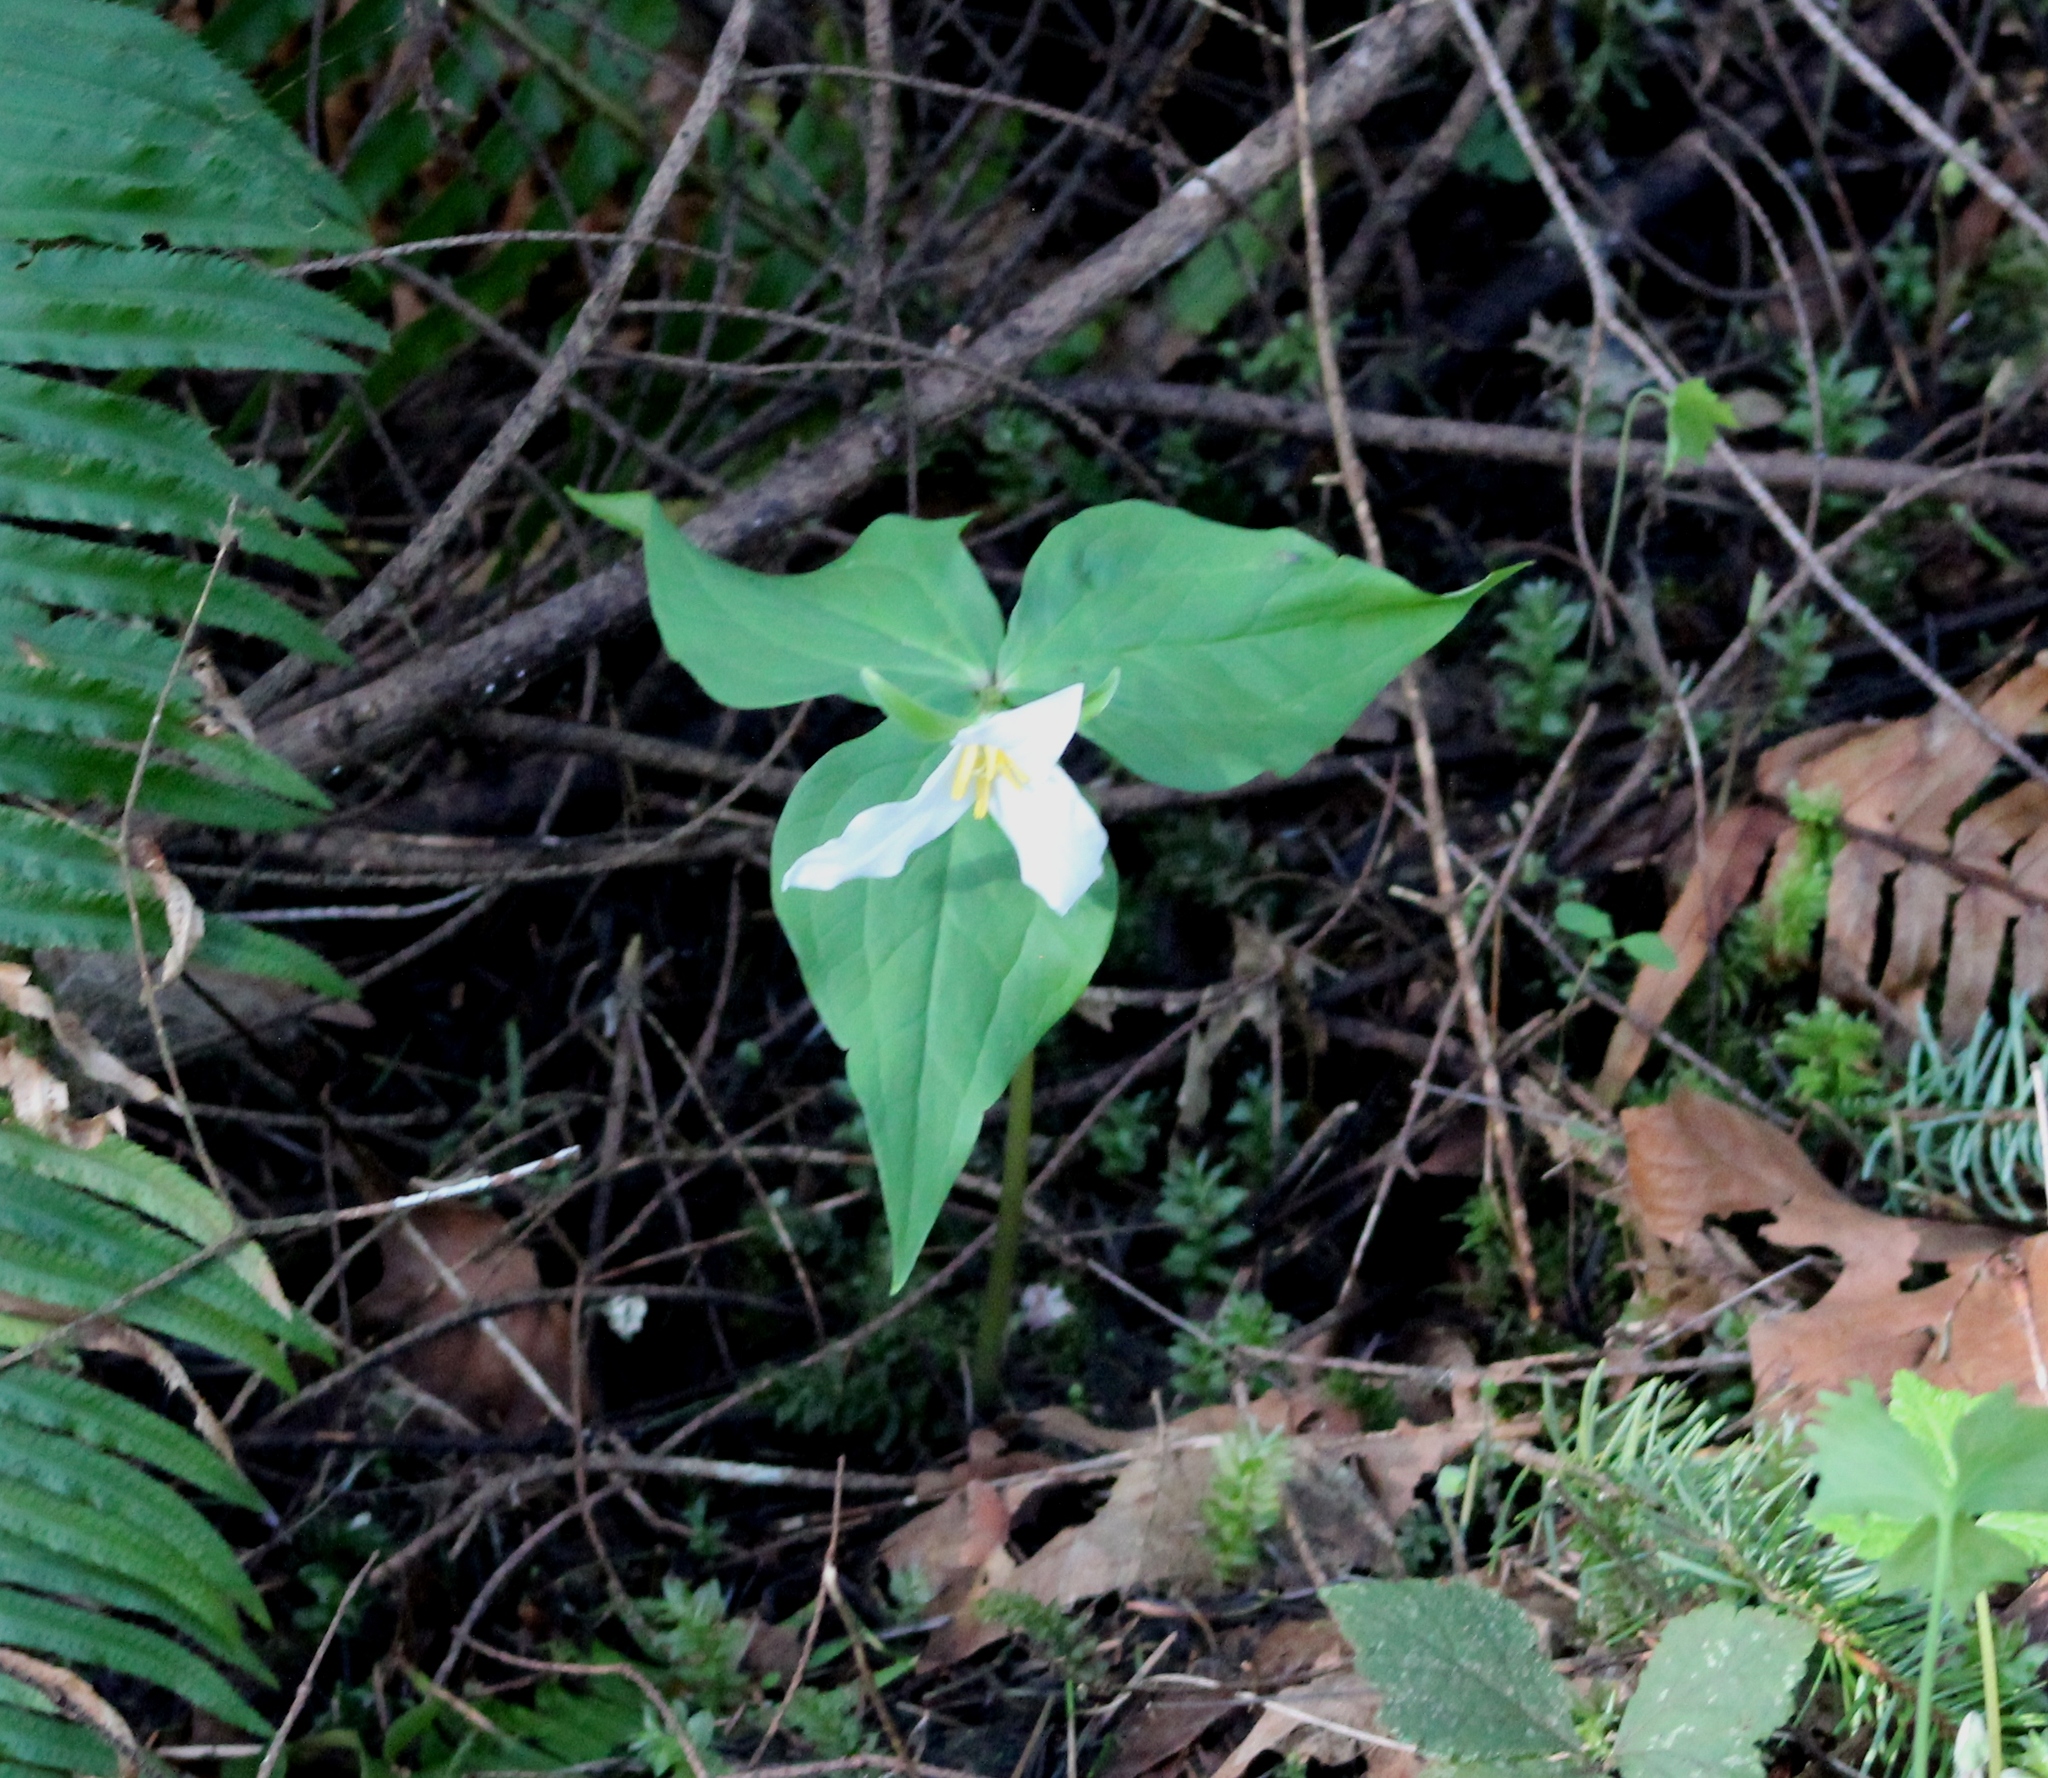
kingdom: Plantae
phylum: Tracheophyta
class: Liliopsida
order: Liliales
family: Melanthiaceae
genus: Trillium
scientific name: Trillium ovatum
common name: Pacific trillium
